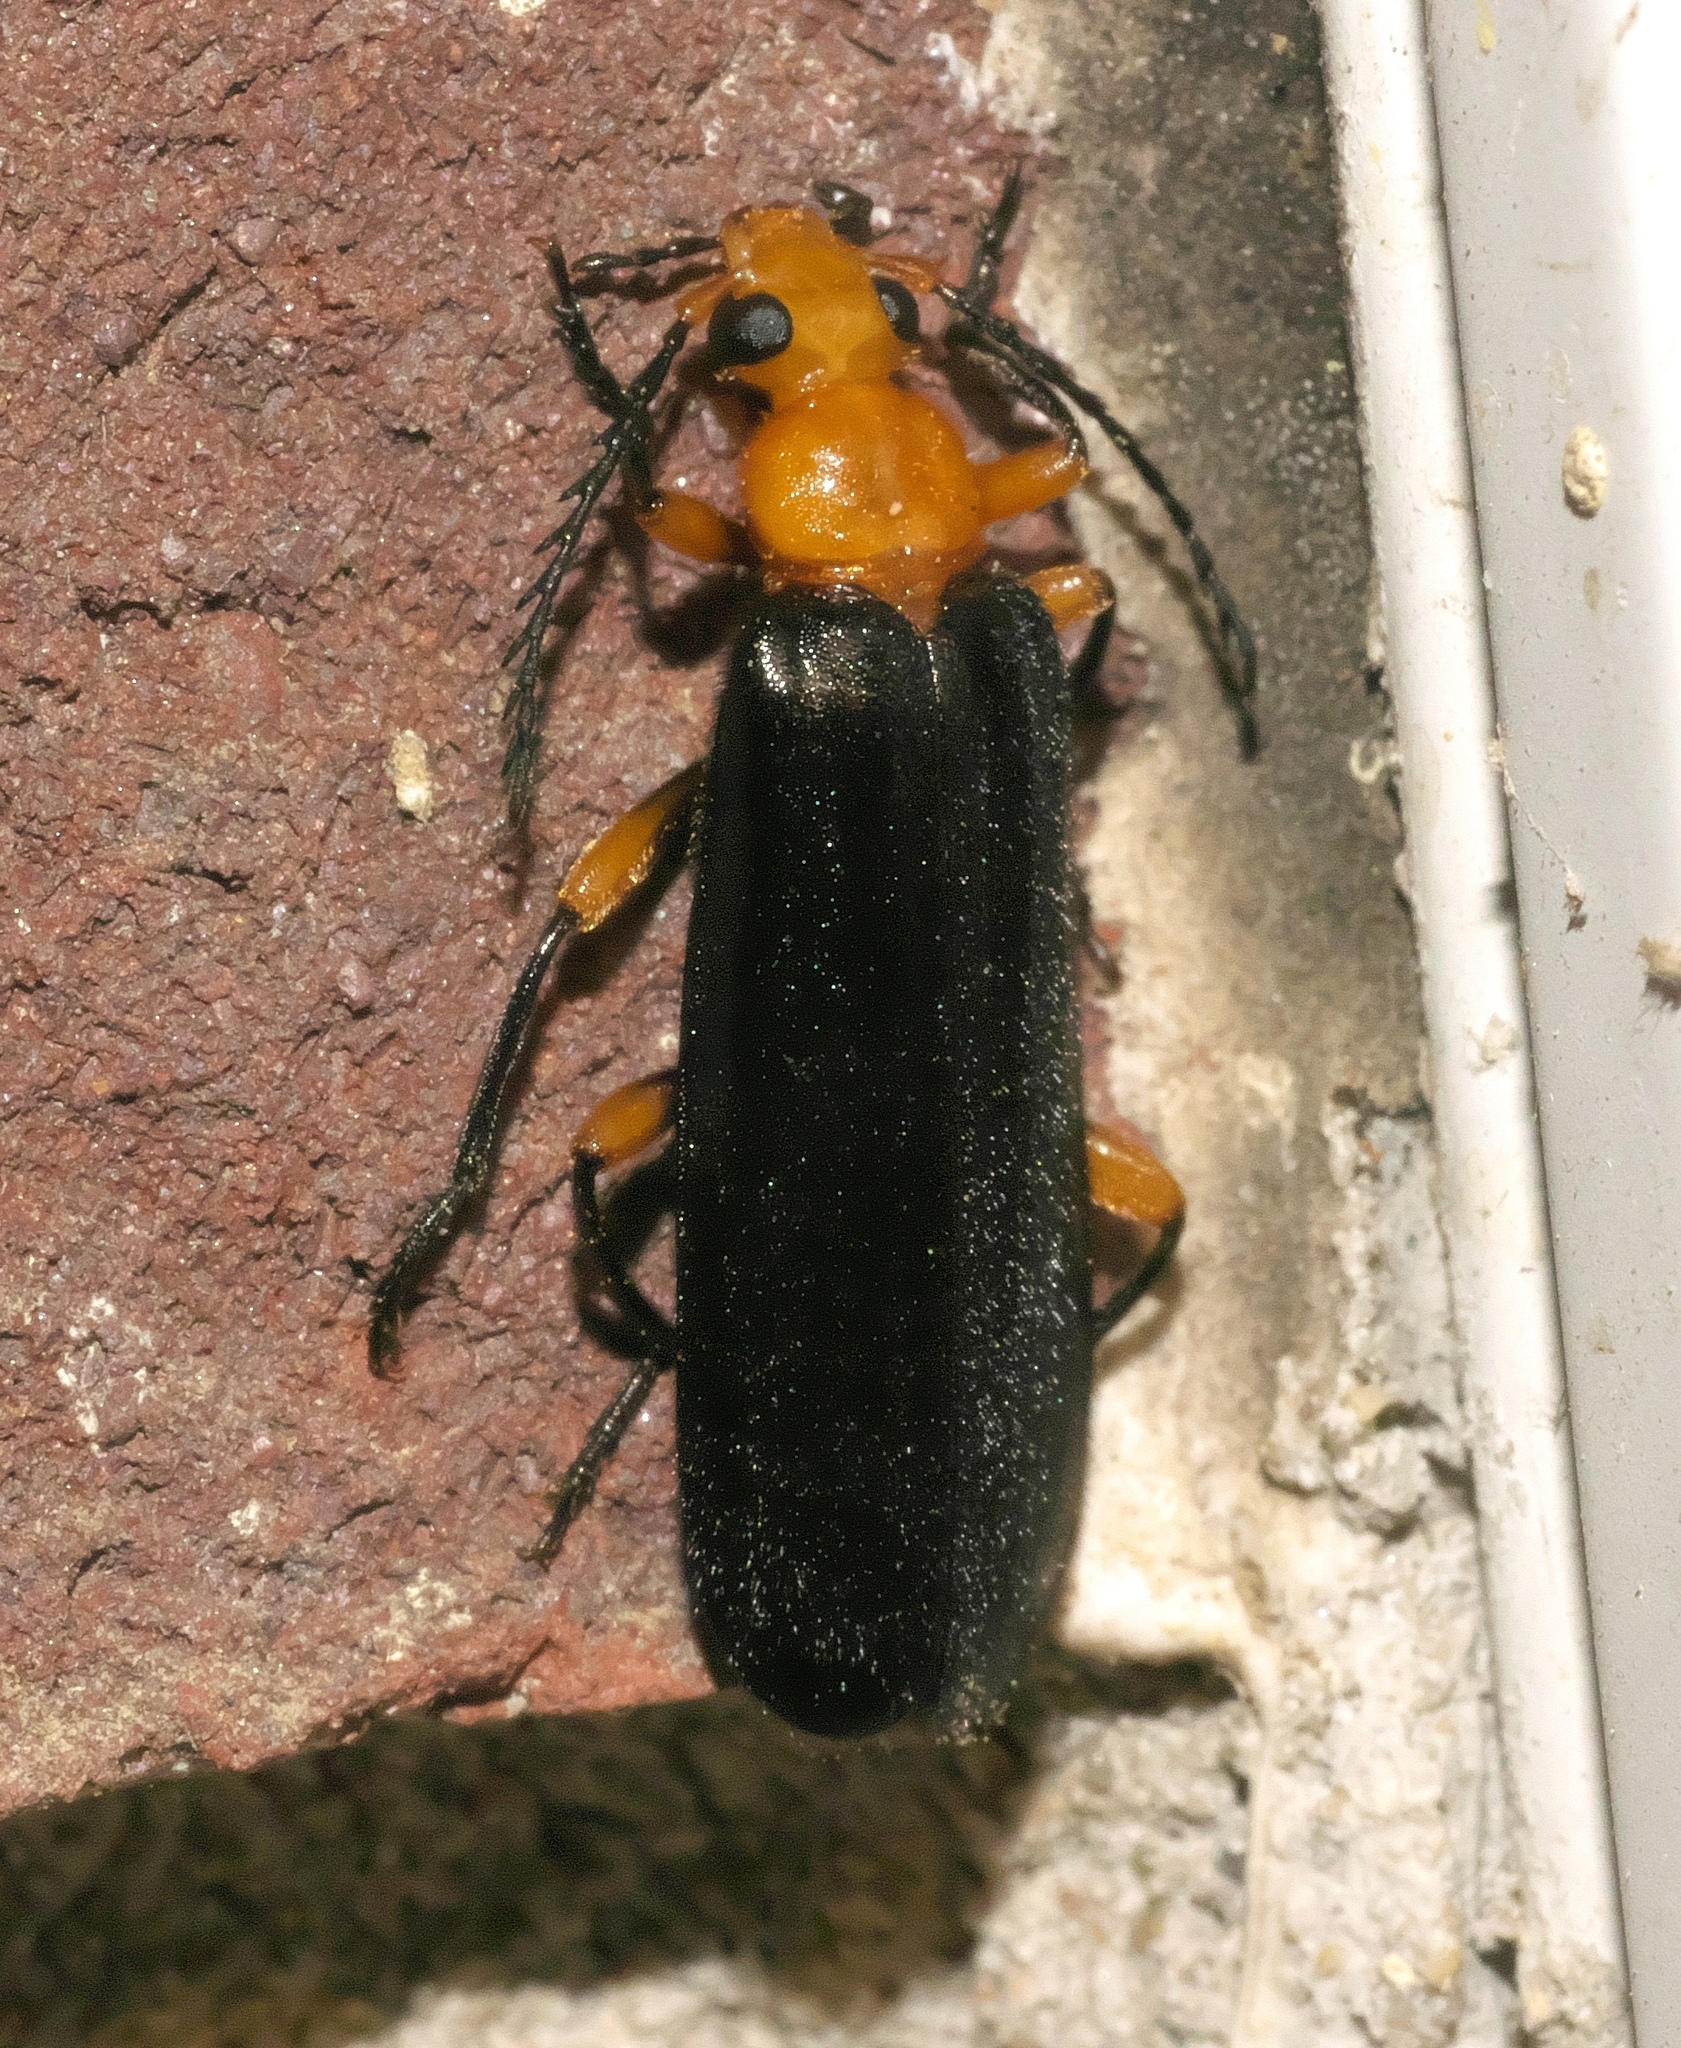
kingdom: Animalia
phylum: Arthropoda
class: Insecta
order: Coleoptera
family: Pyrochroidae
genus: Neopyrochroa
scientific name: Neopyrochroa femoralis
